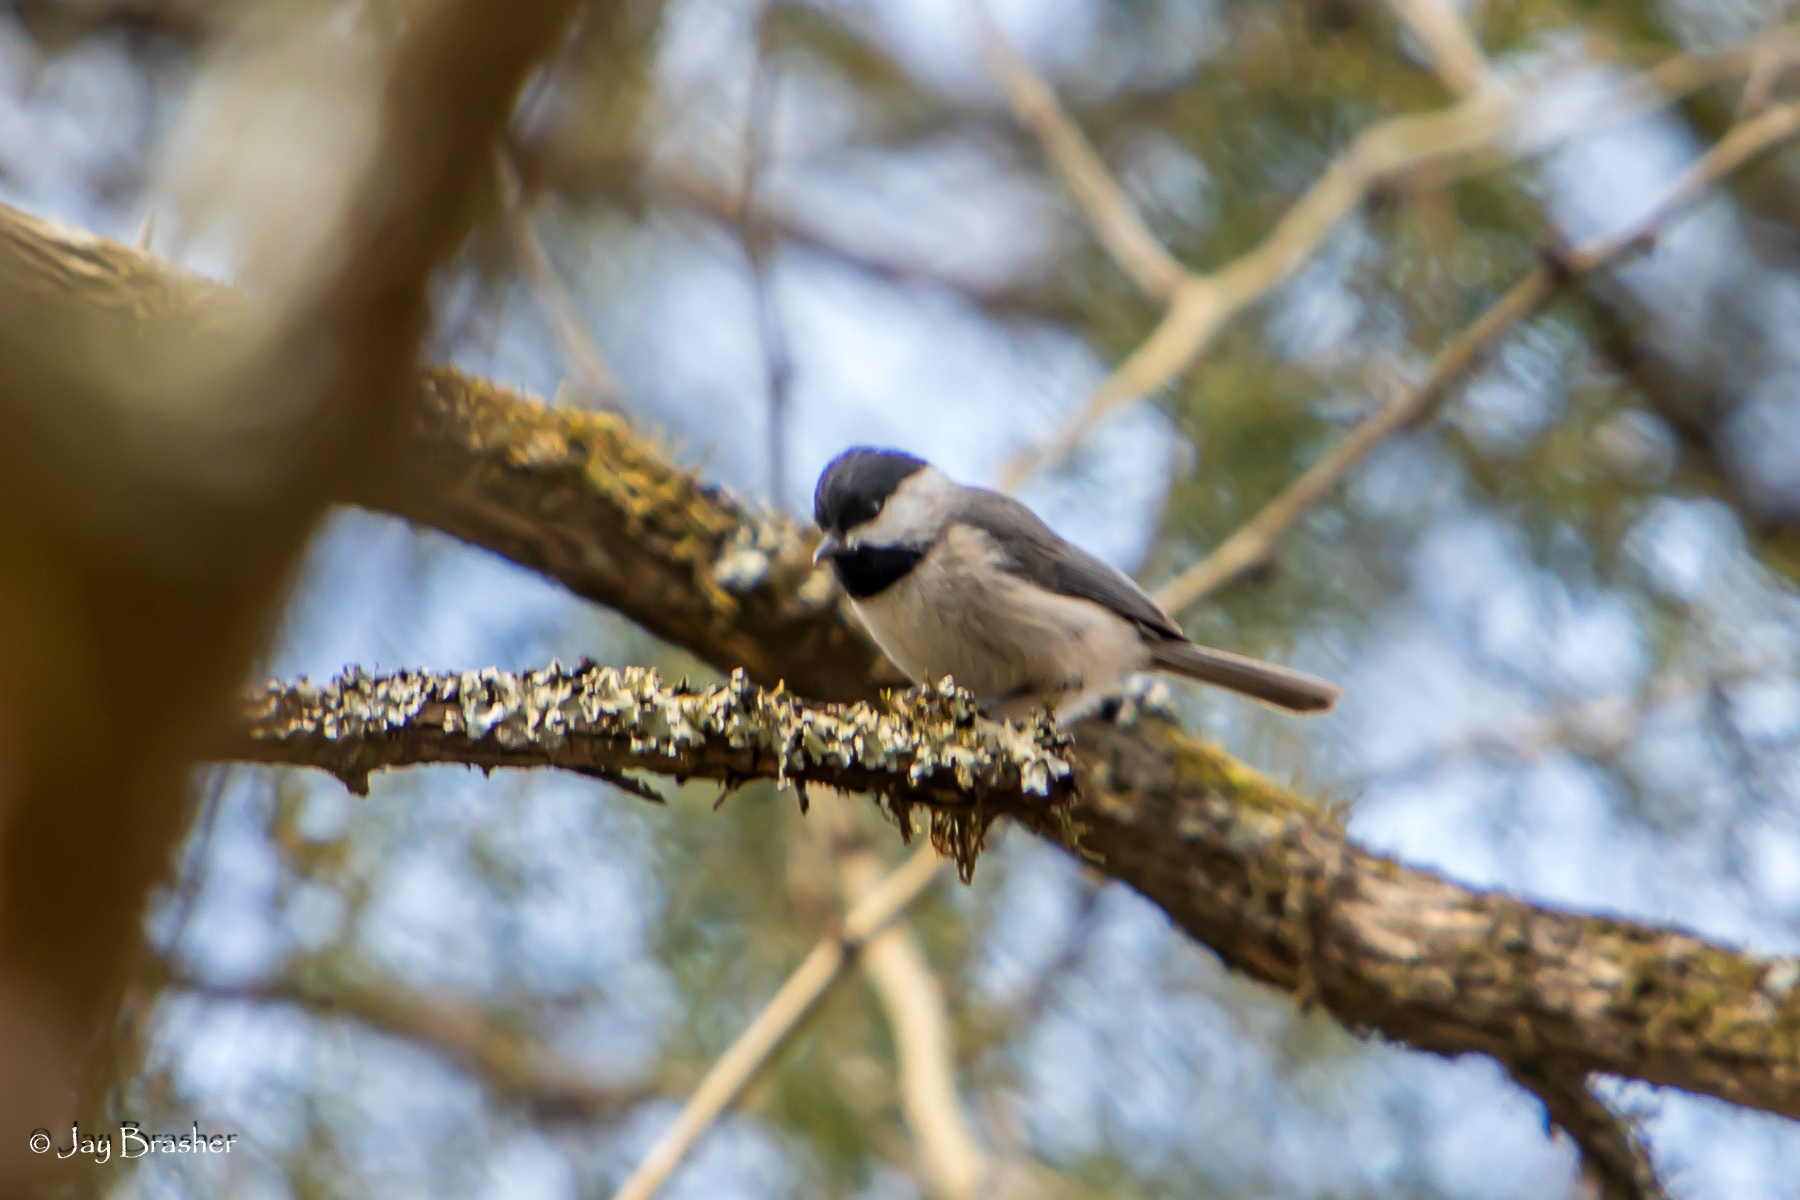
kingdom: Animalia
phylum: Chordata
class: Aves
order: Passeriformes
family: Paridae
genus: Poecile
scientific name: Poecile carolinensis
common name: Carolina chickadee
